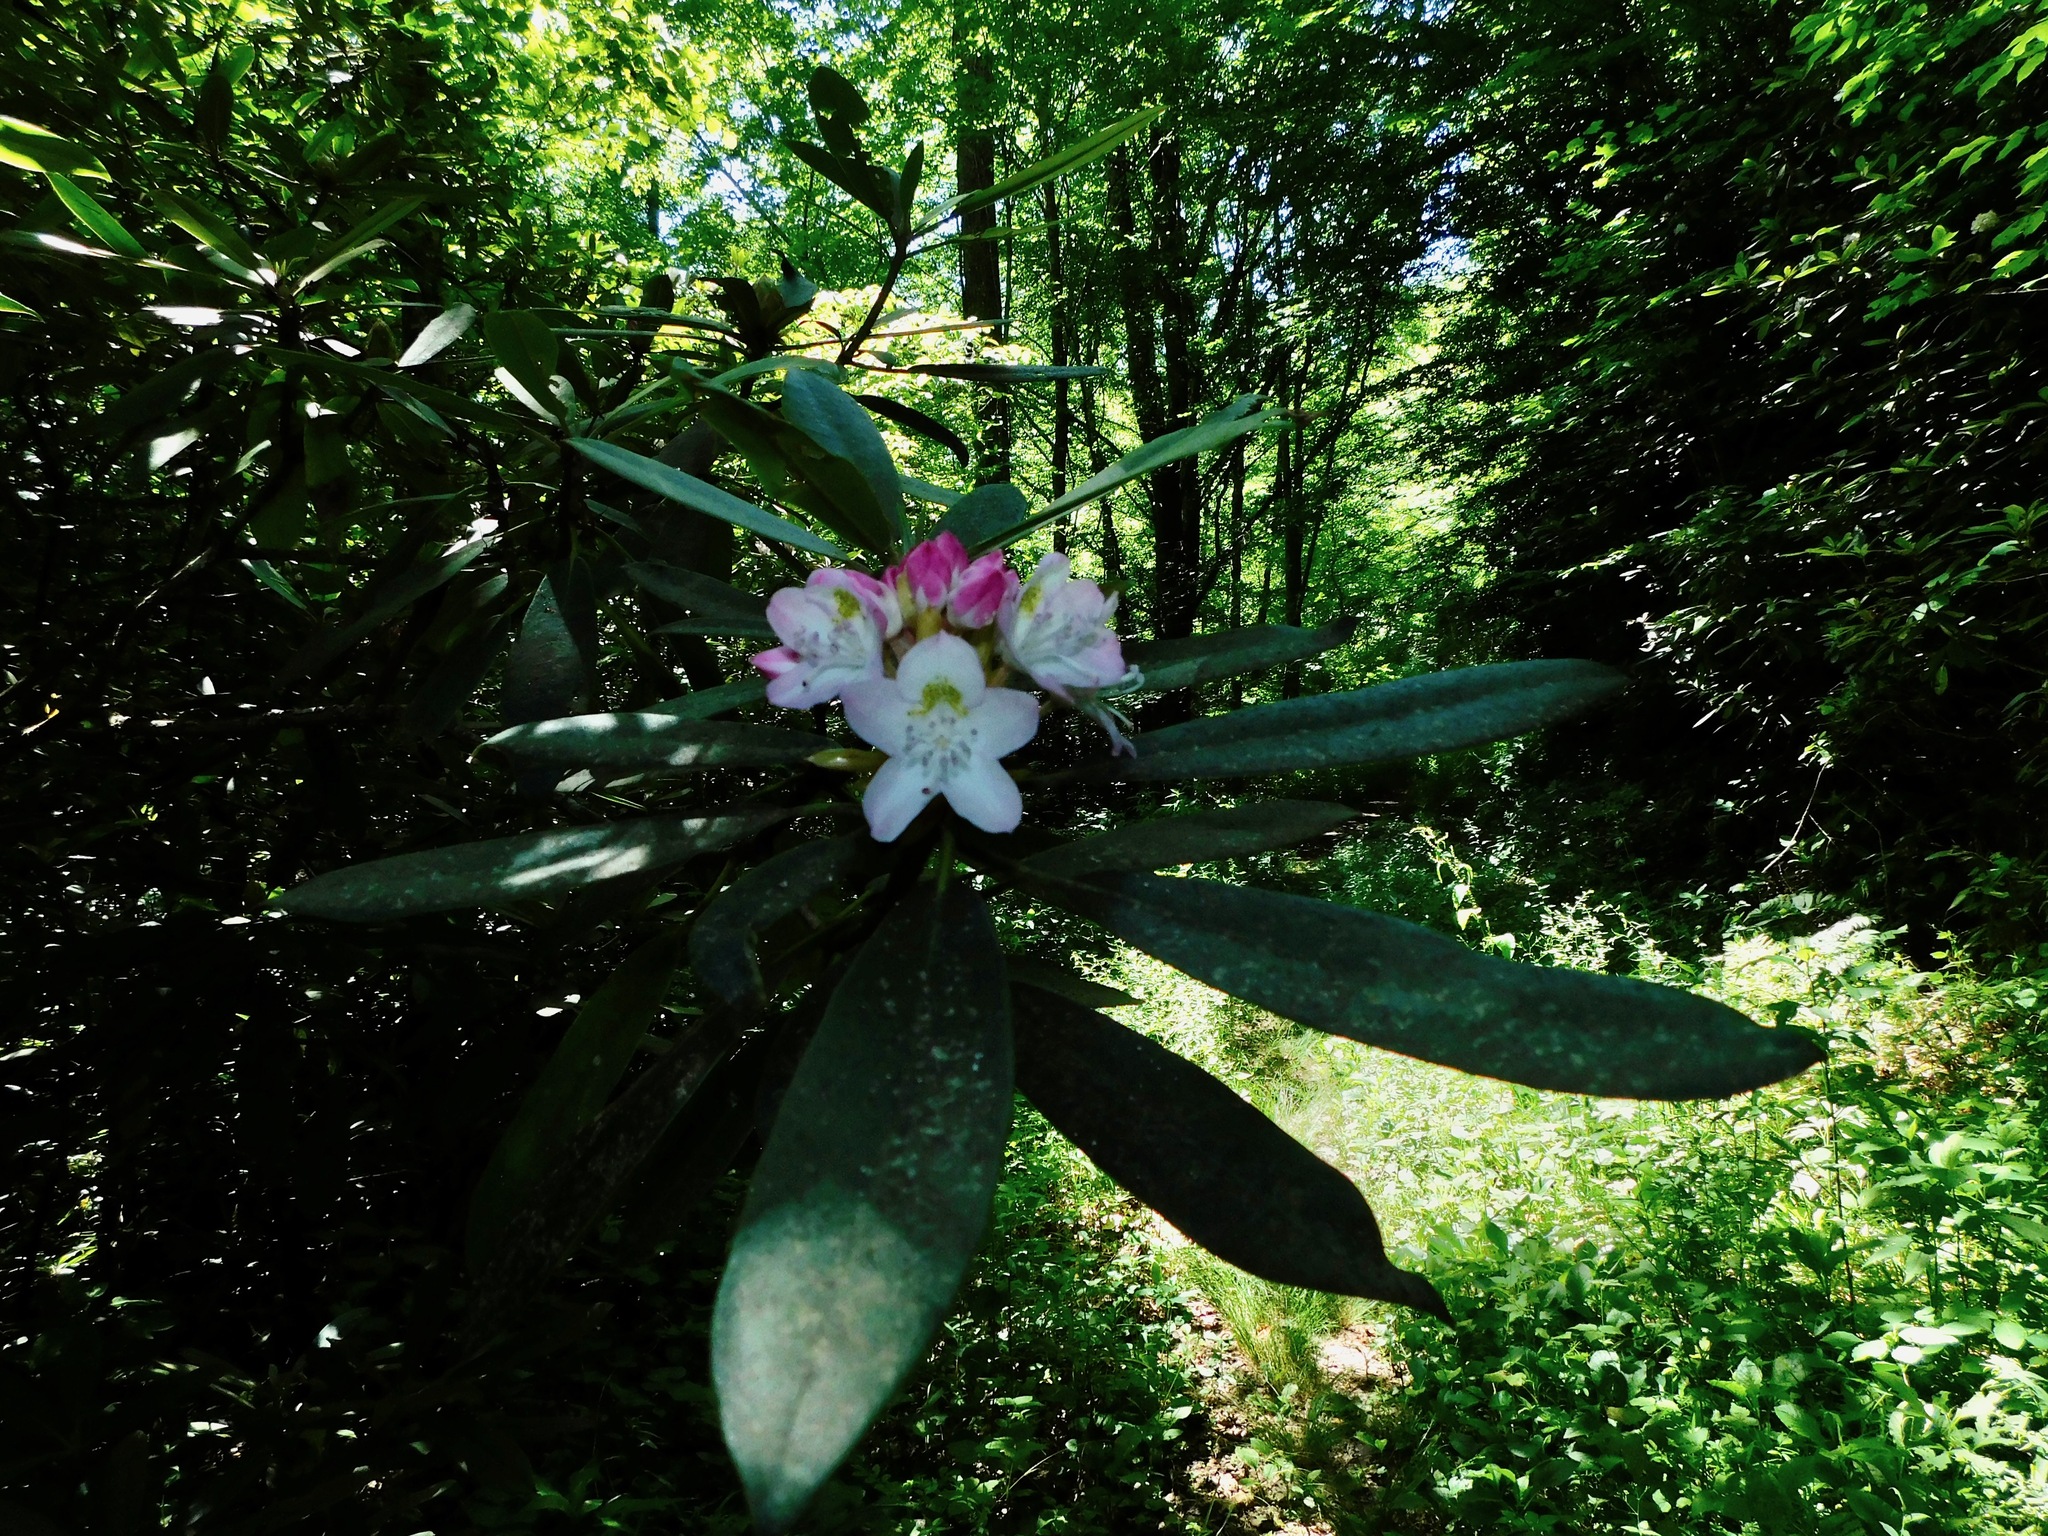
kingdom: Plantae
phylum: Tracheophyta
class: Magnoliopsida
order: Ericales
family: Ericaceae
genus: Rhododendron
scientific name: Rhododendron maximum
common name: Great rhododendron
